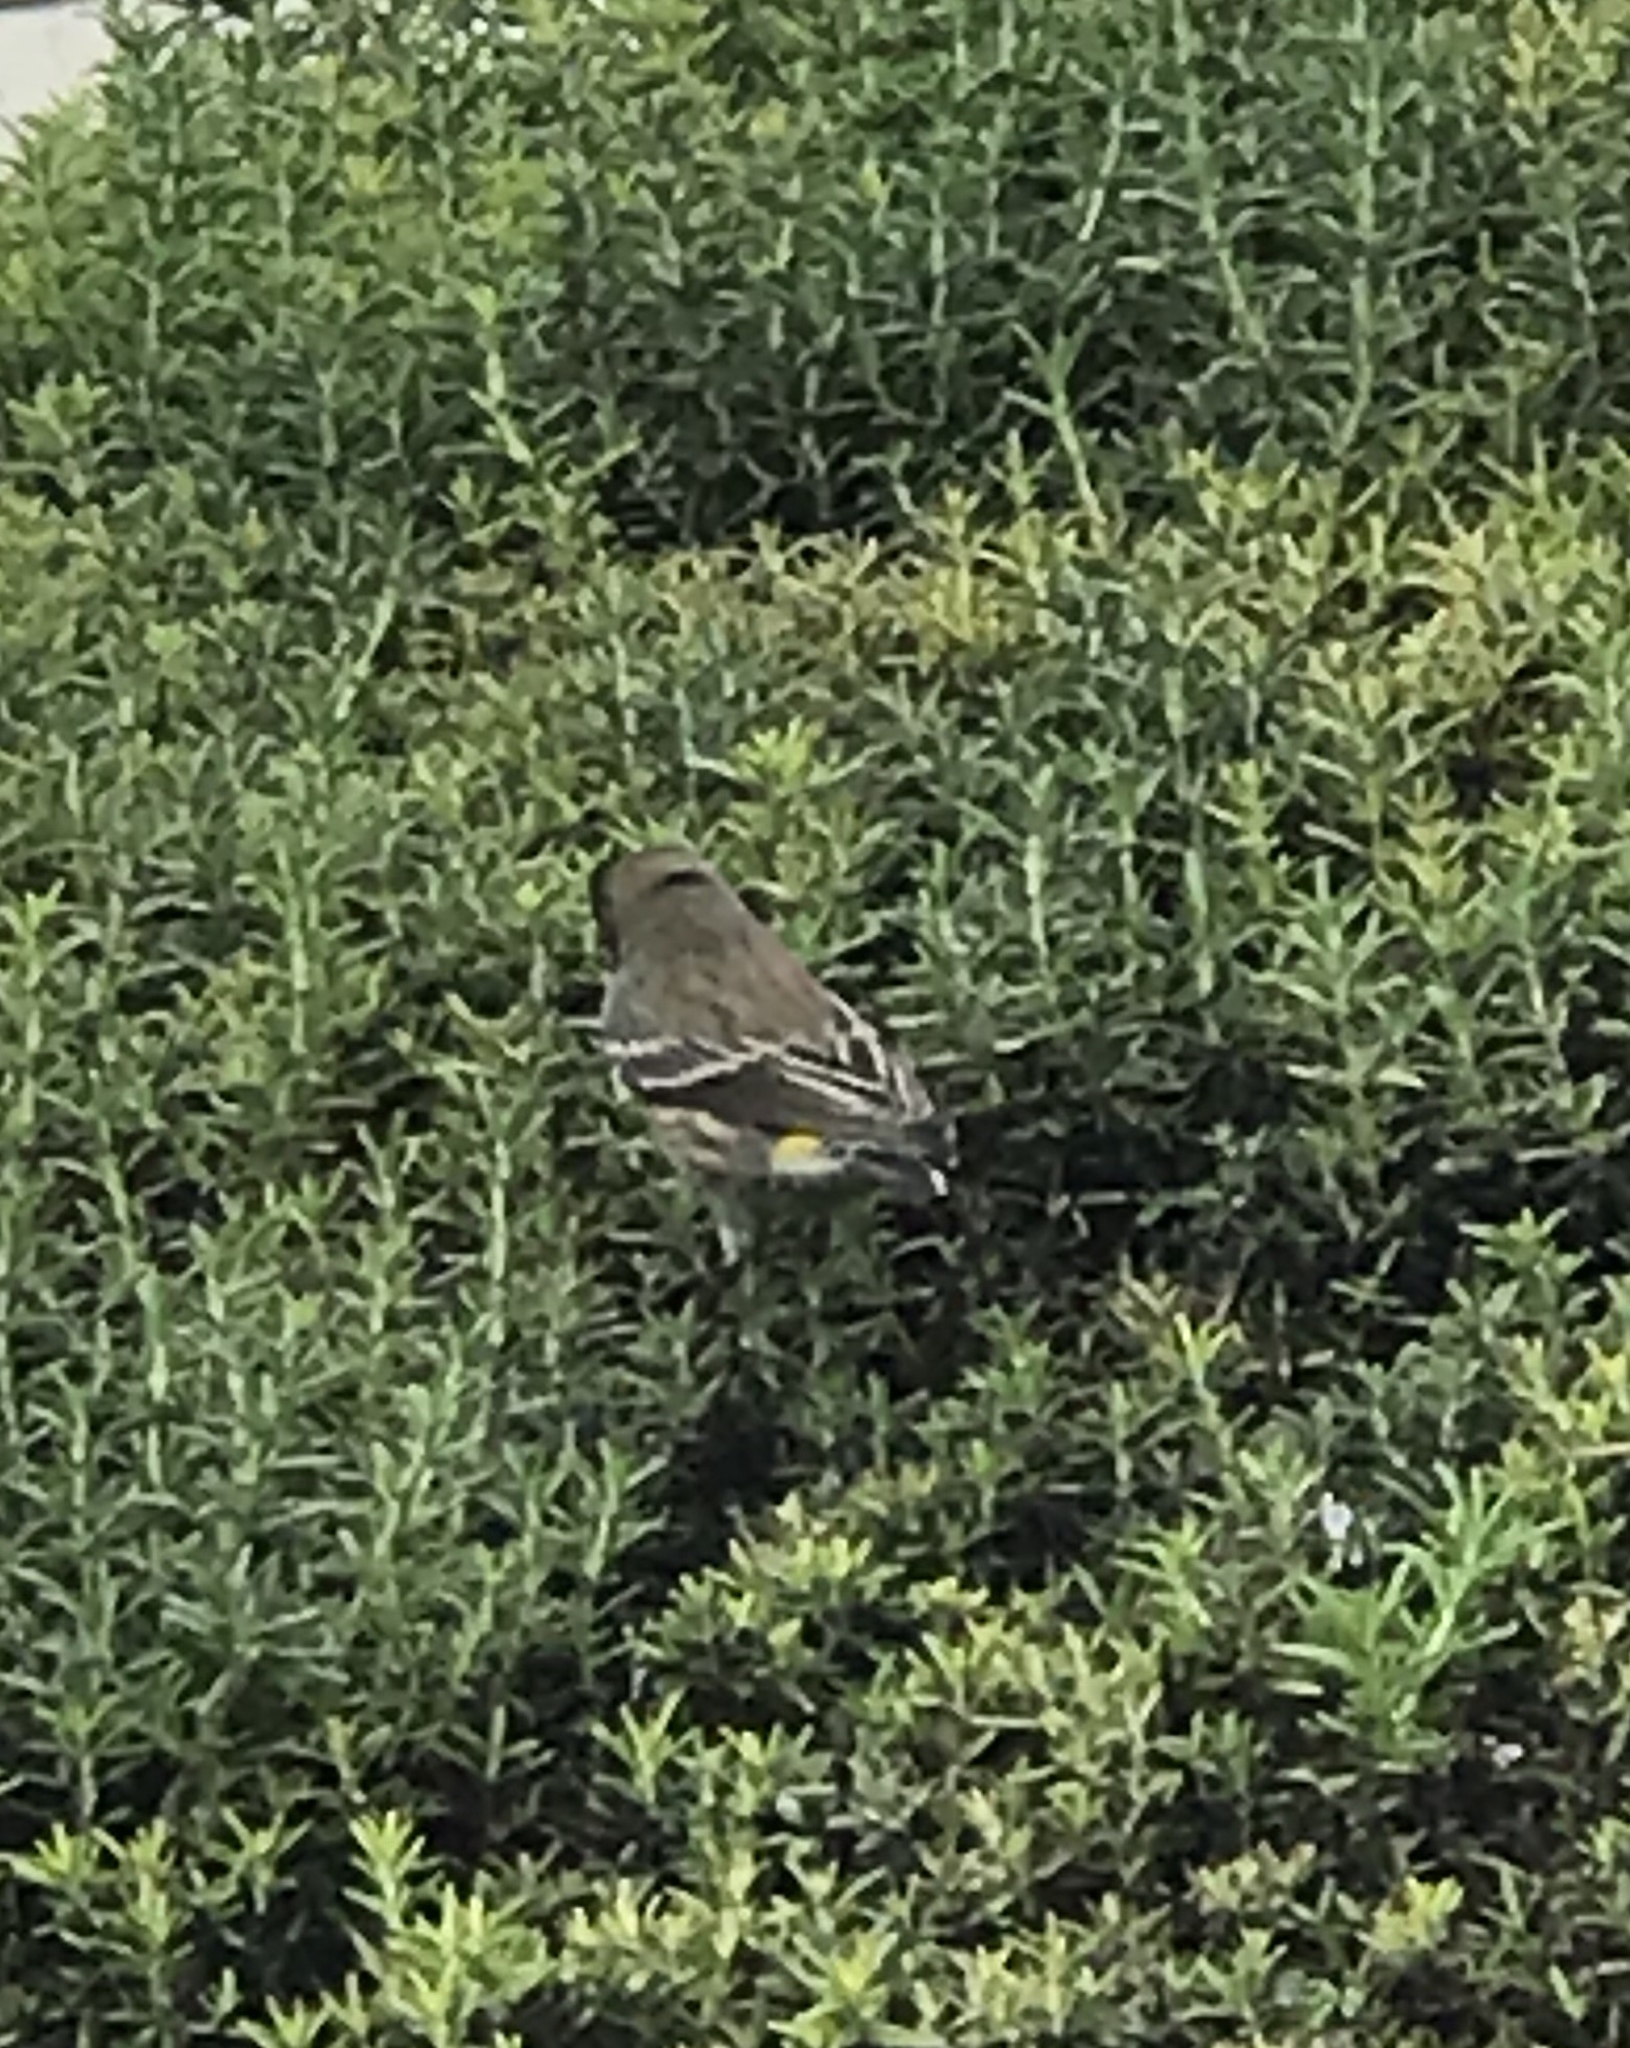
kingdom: Animalia
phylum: Chordata
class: Aves
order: Passeriformes
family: Parulidae
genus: Setophaga
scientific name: Setophaga coronata
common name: Myrtle warbler
